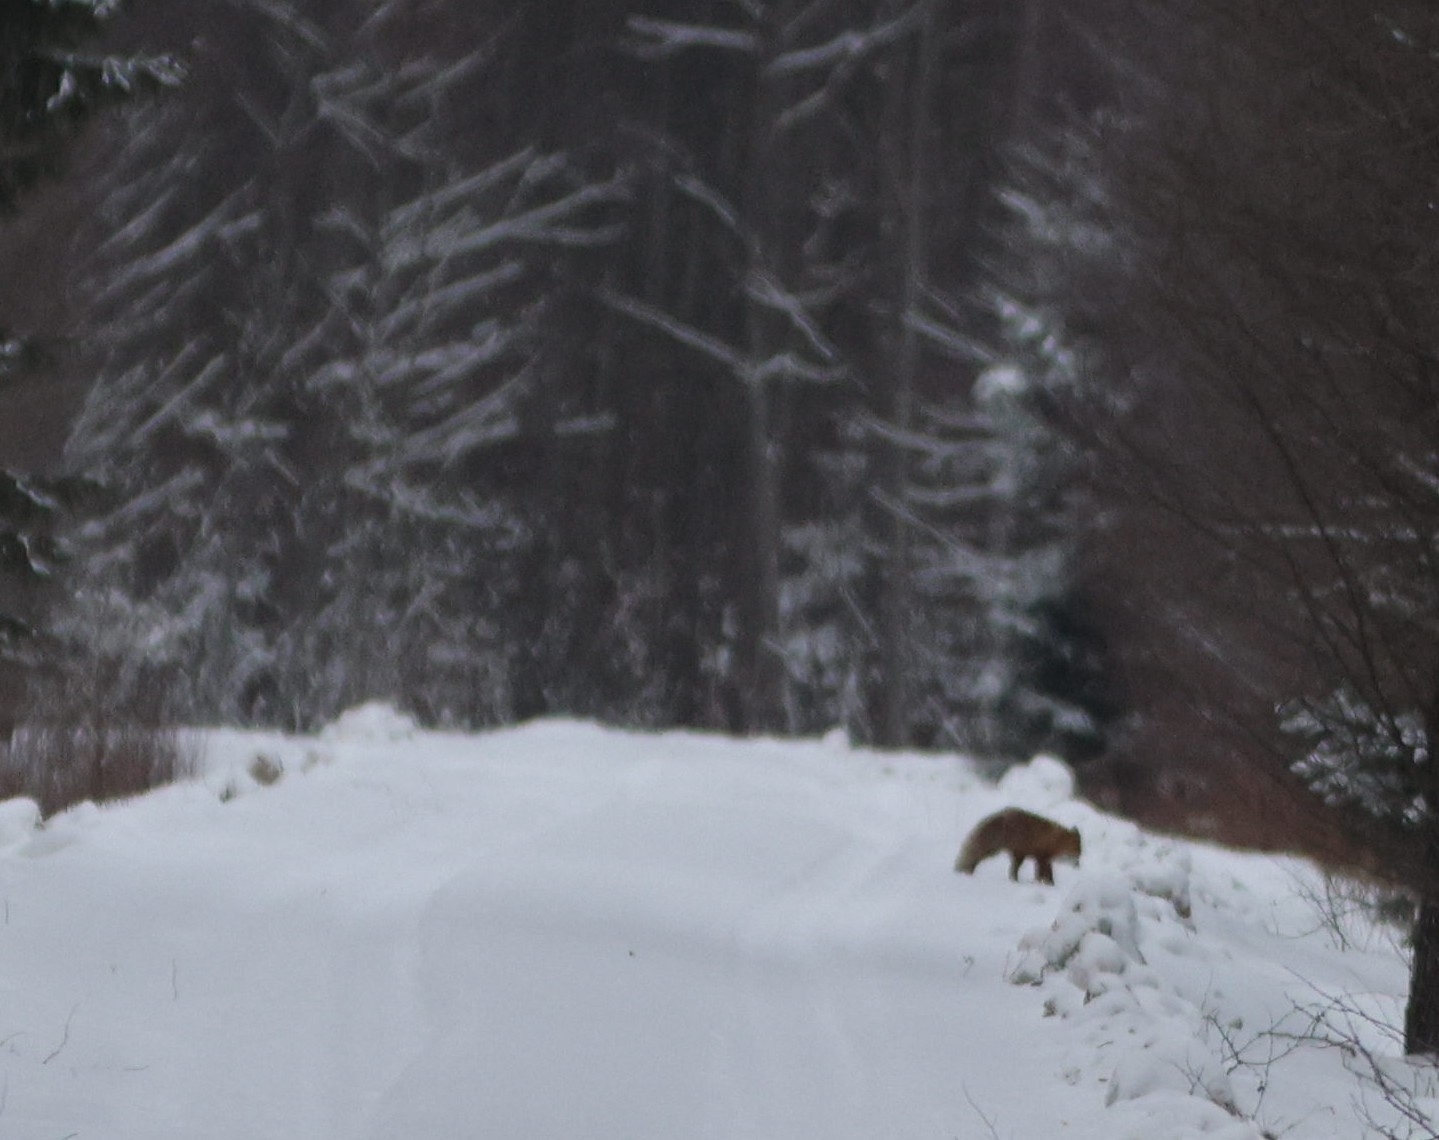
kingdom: Animalia
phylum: Chordata
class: Mammalia
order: Carnivora
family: Canidae
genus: Vulpes
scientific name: Vulpes vulpes
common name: Red fox
